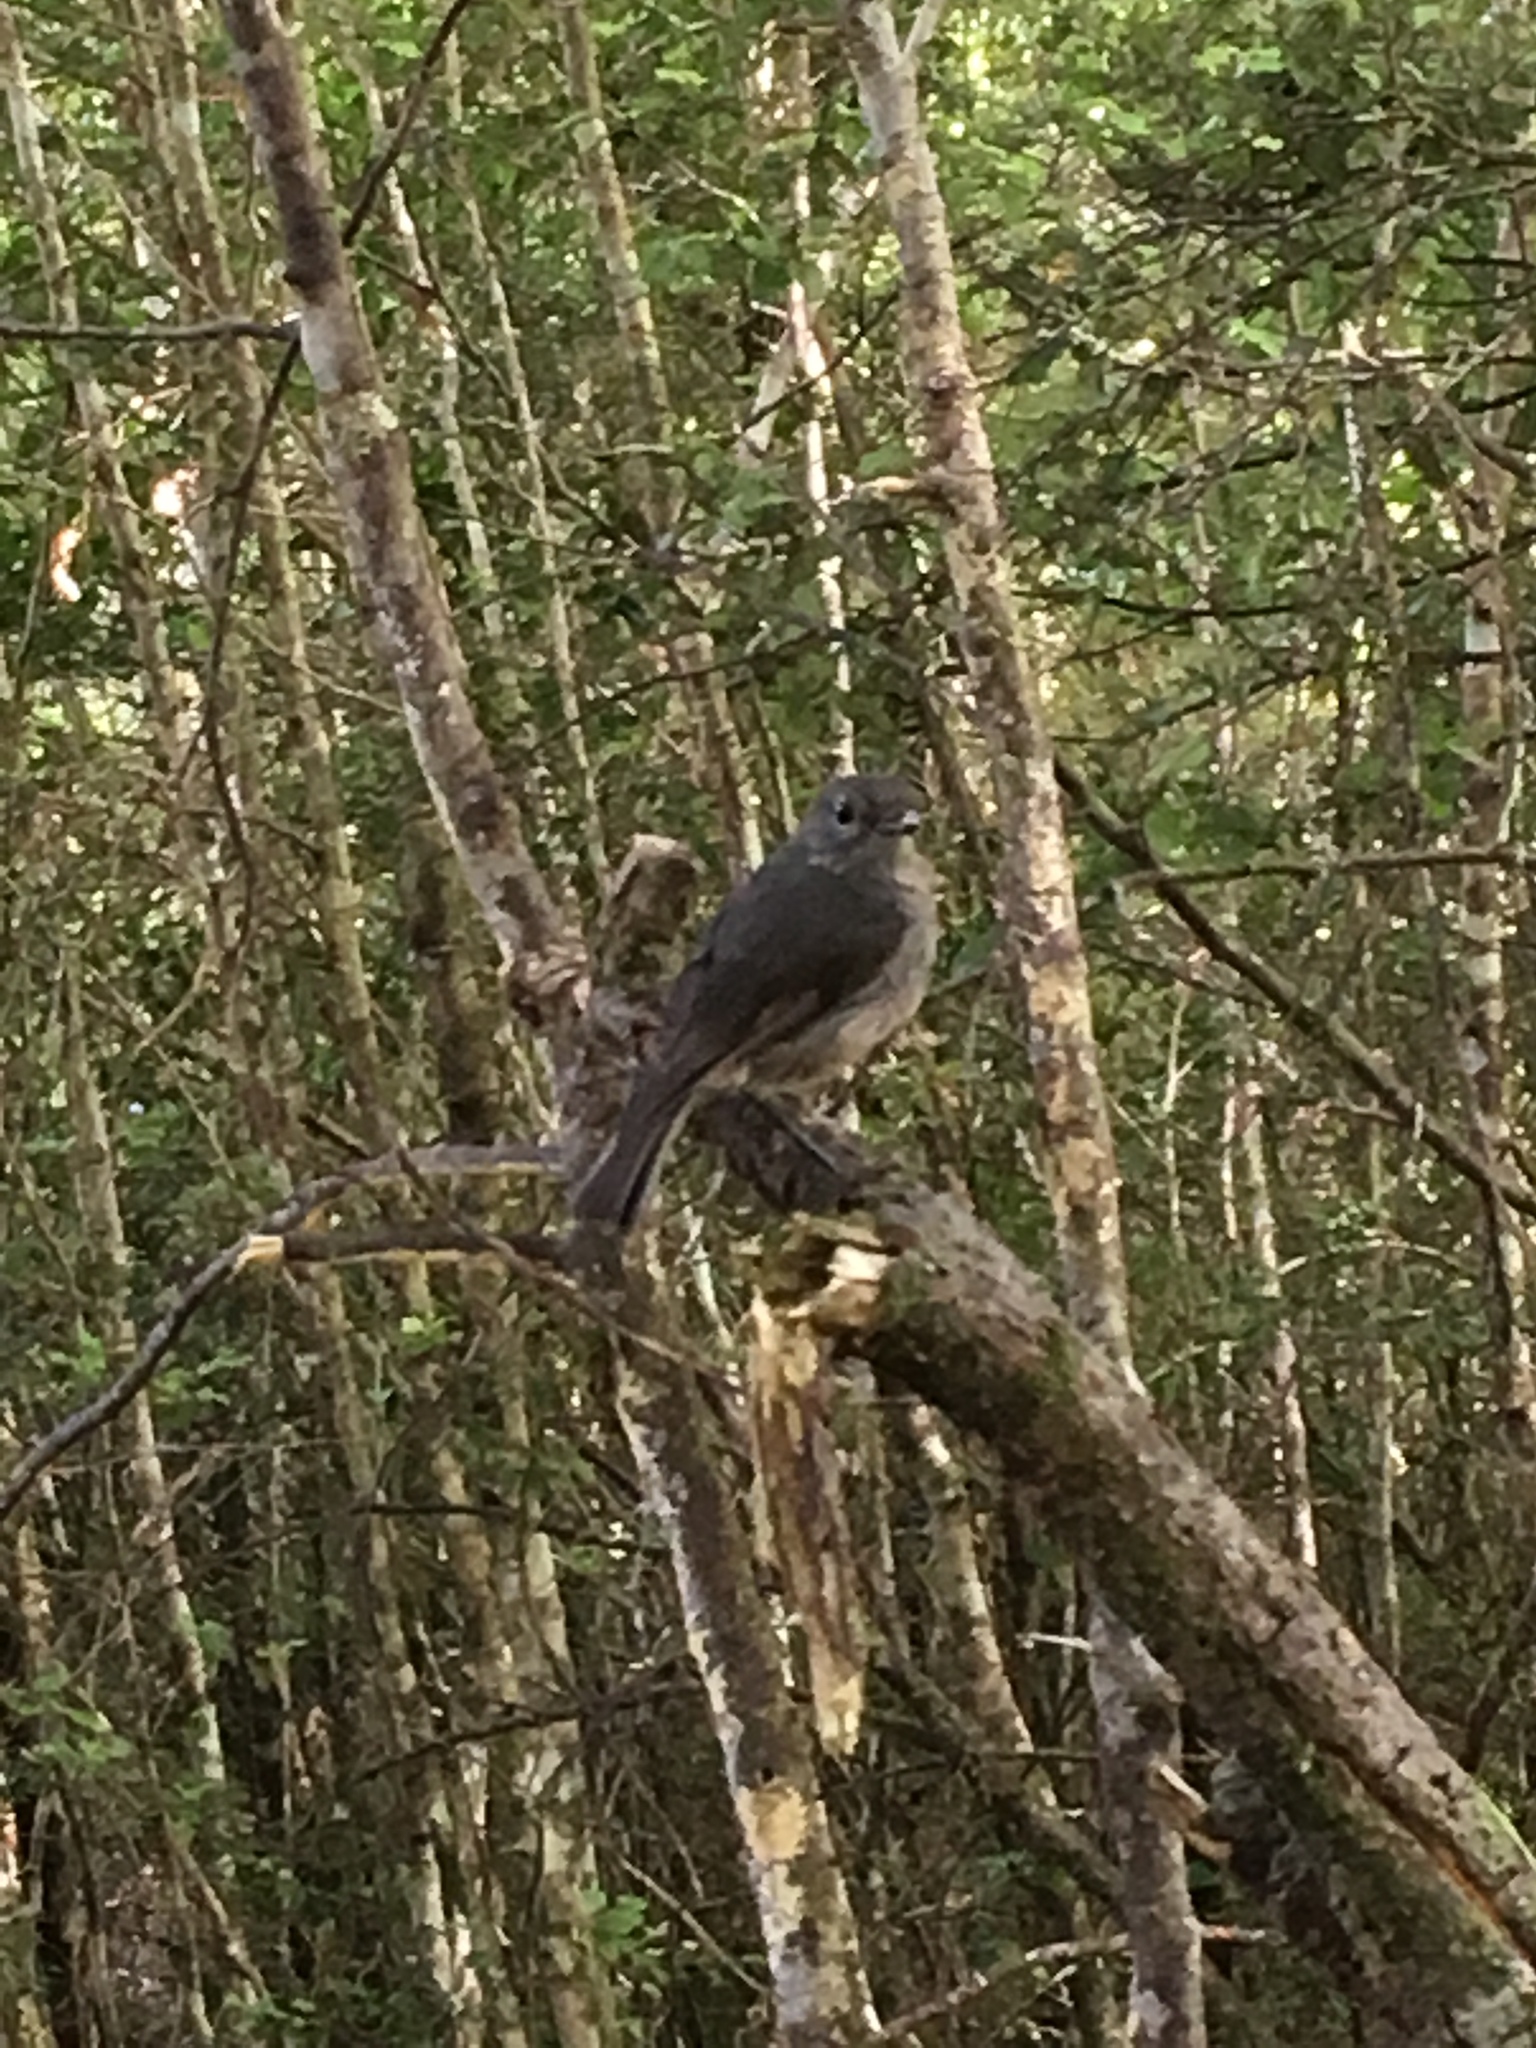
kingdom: Animalia
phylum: Chordata
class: Aves
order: Passeriformes
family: Petroicidae
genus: Petroica
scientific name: Petroica australis
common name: New zealand robin
